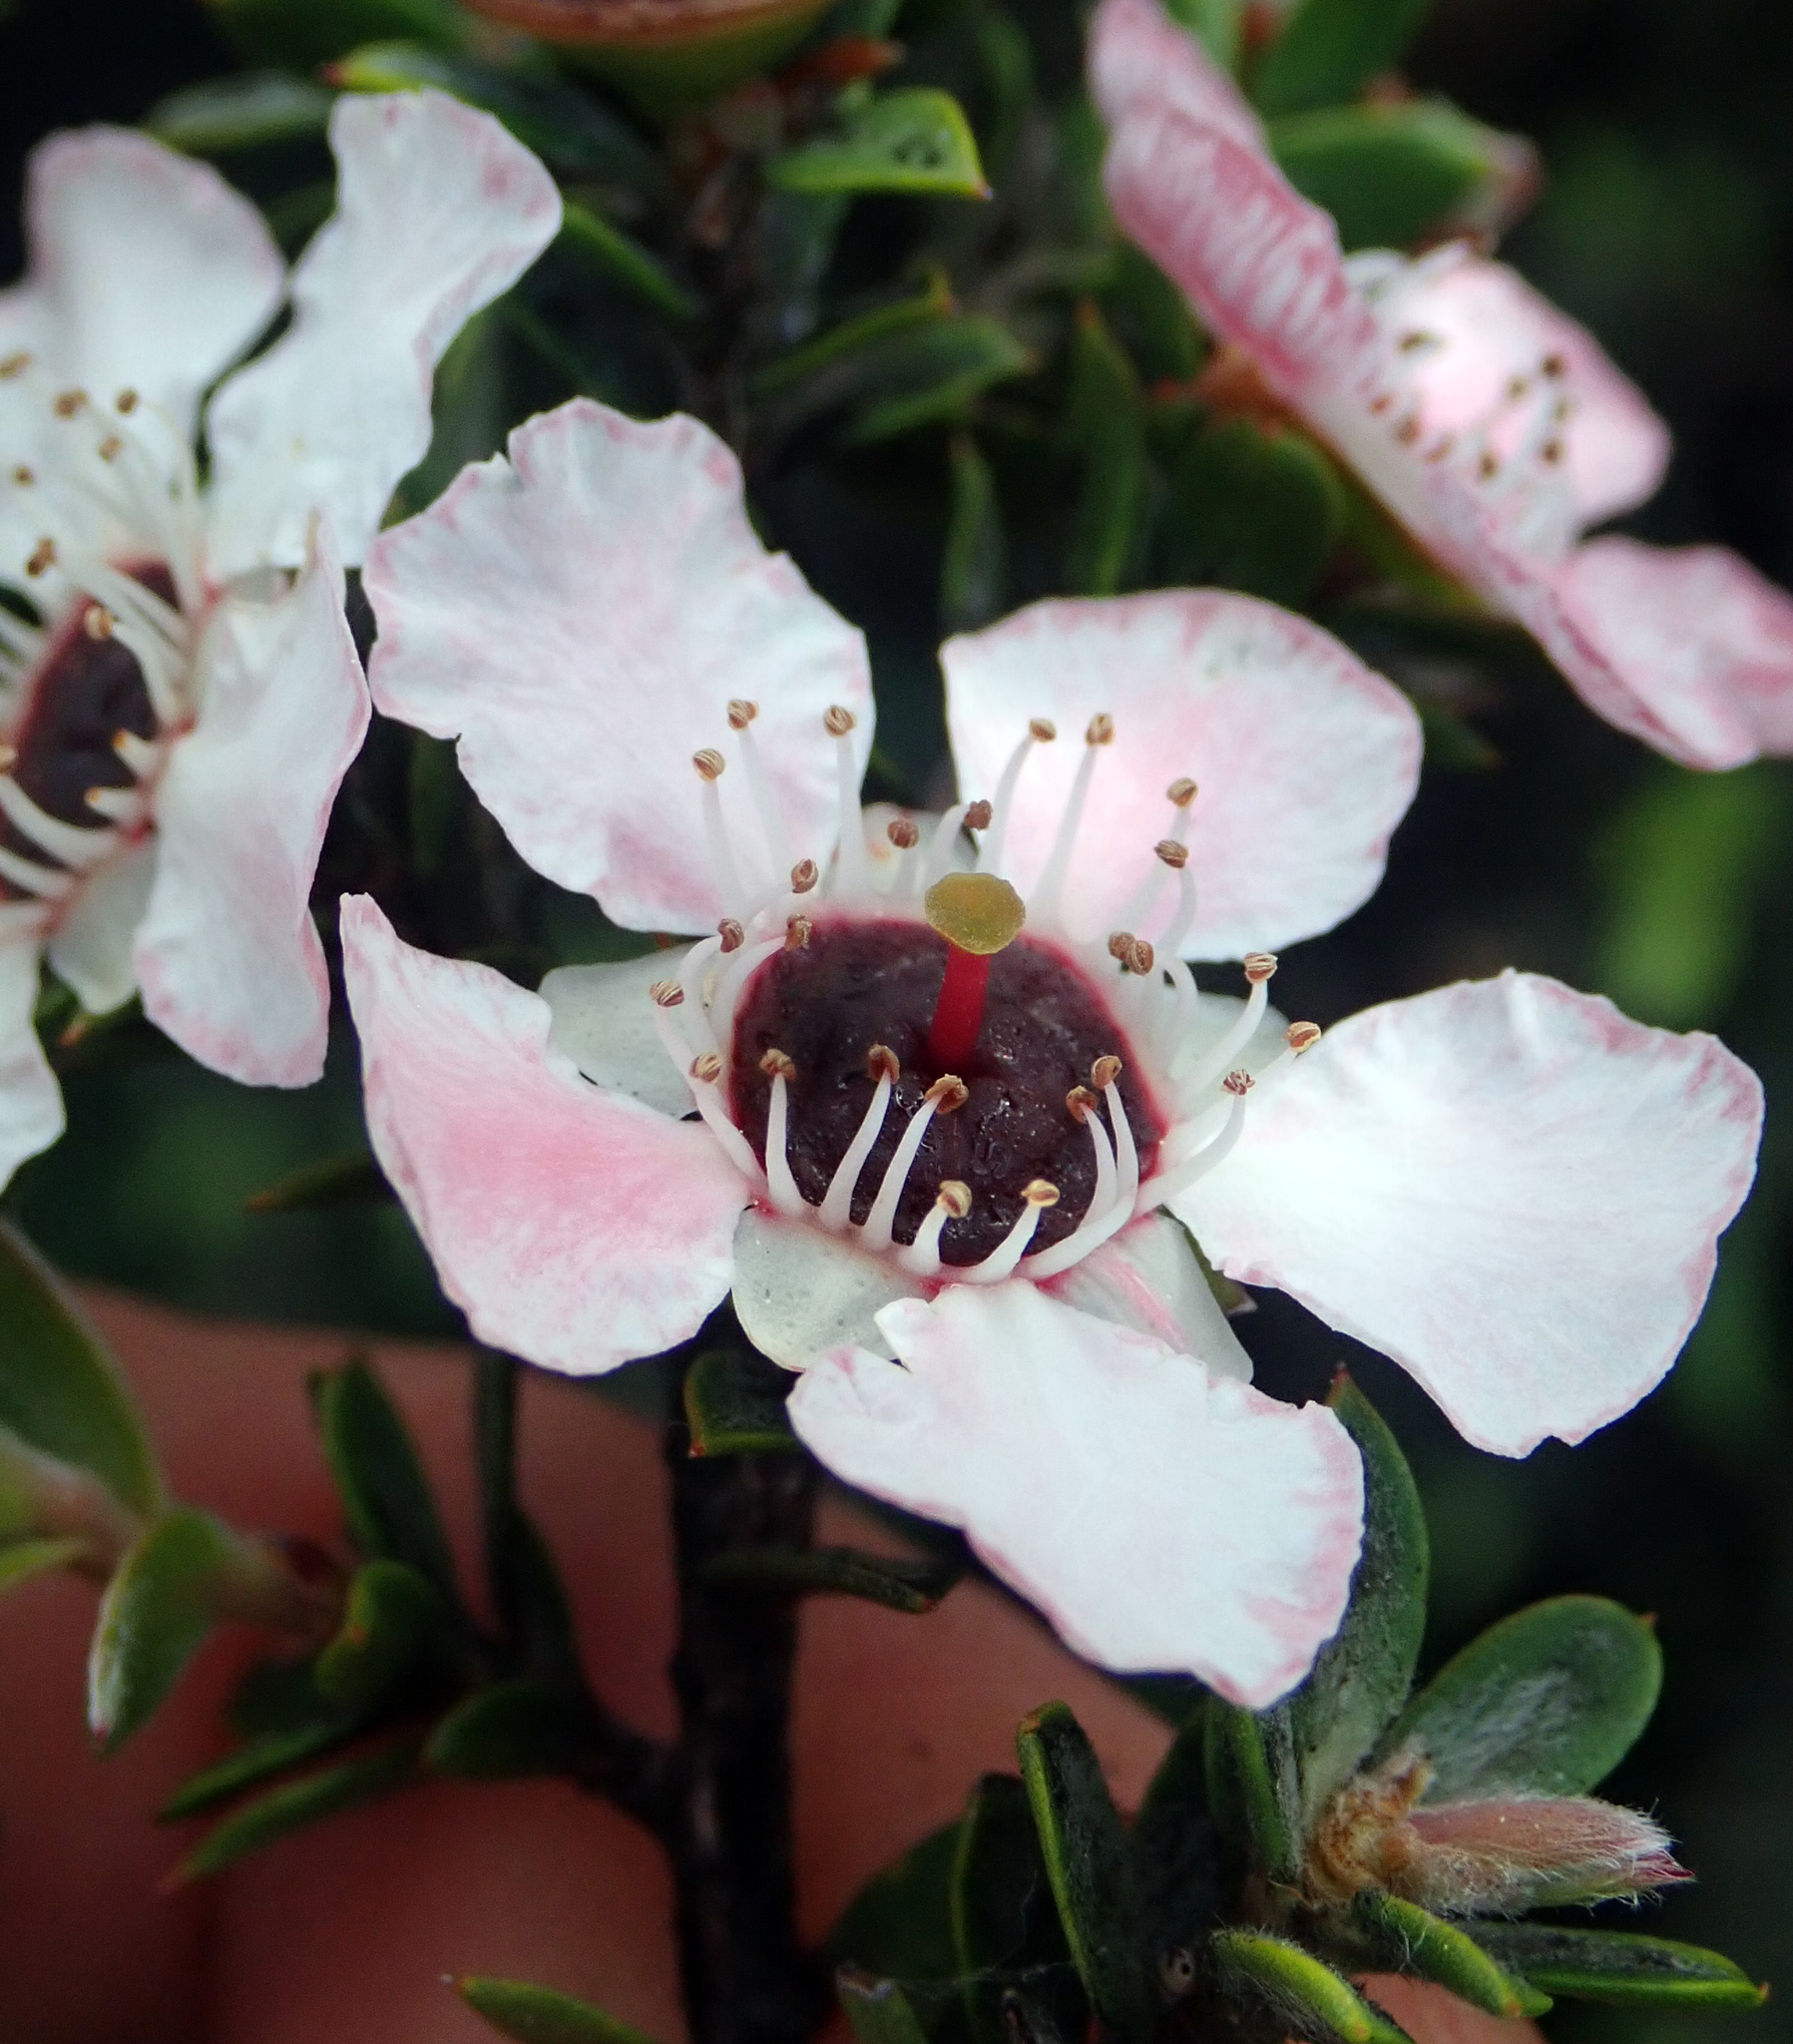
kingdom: Plantae
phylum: Tracheophyta
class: Magnoliopsida
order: Myrtales
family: Myrtaceae
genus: Leptospermum
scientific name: Leptospermum scoparium
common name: Broom tea-tree
